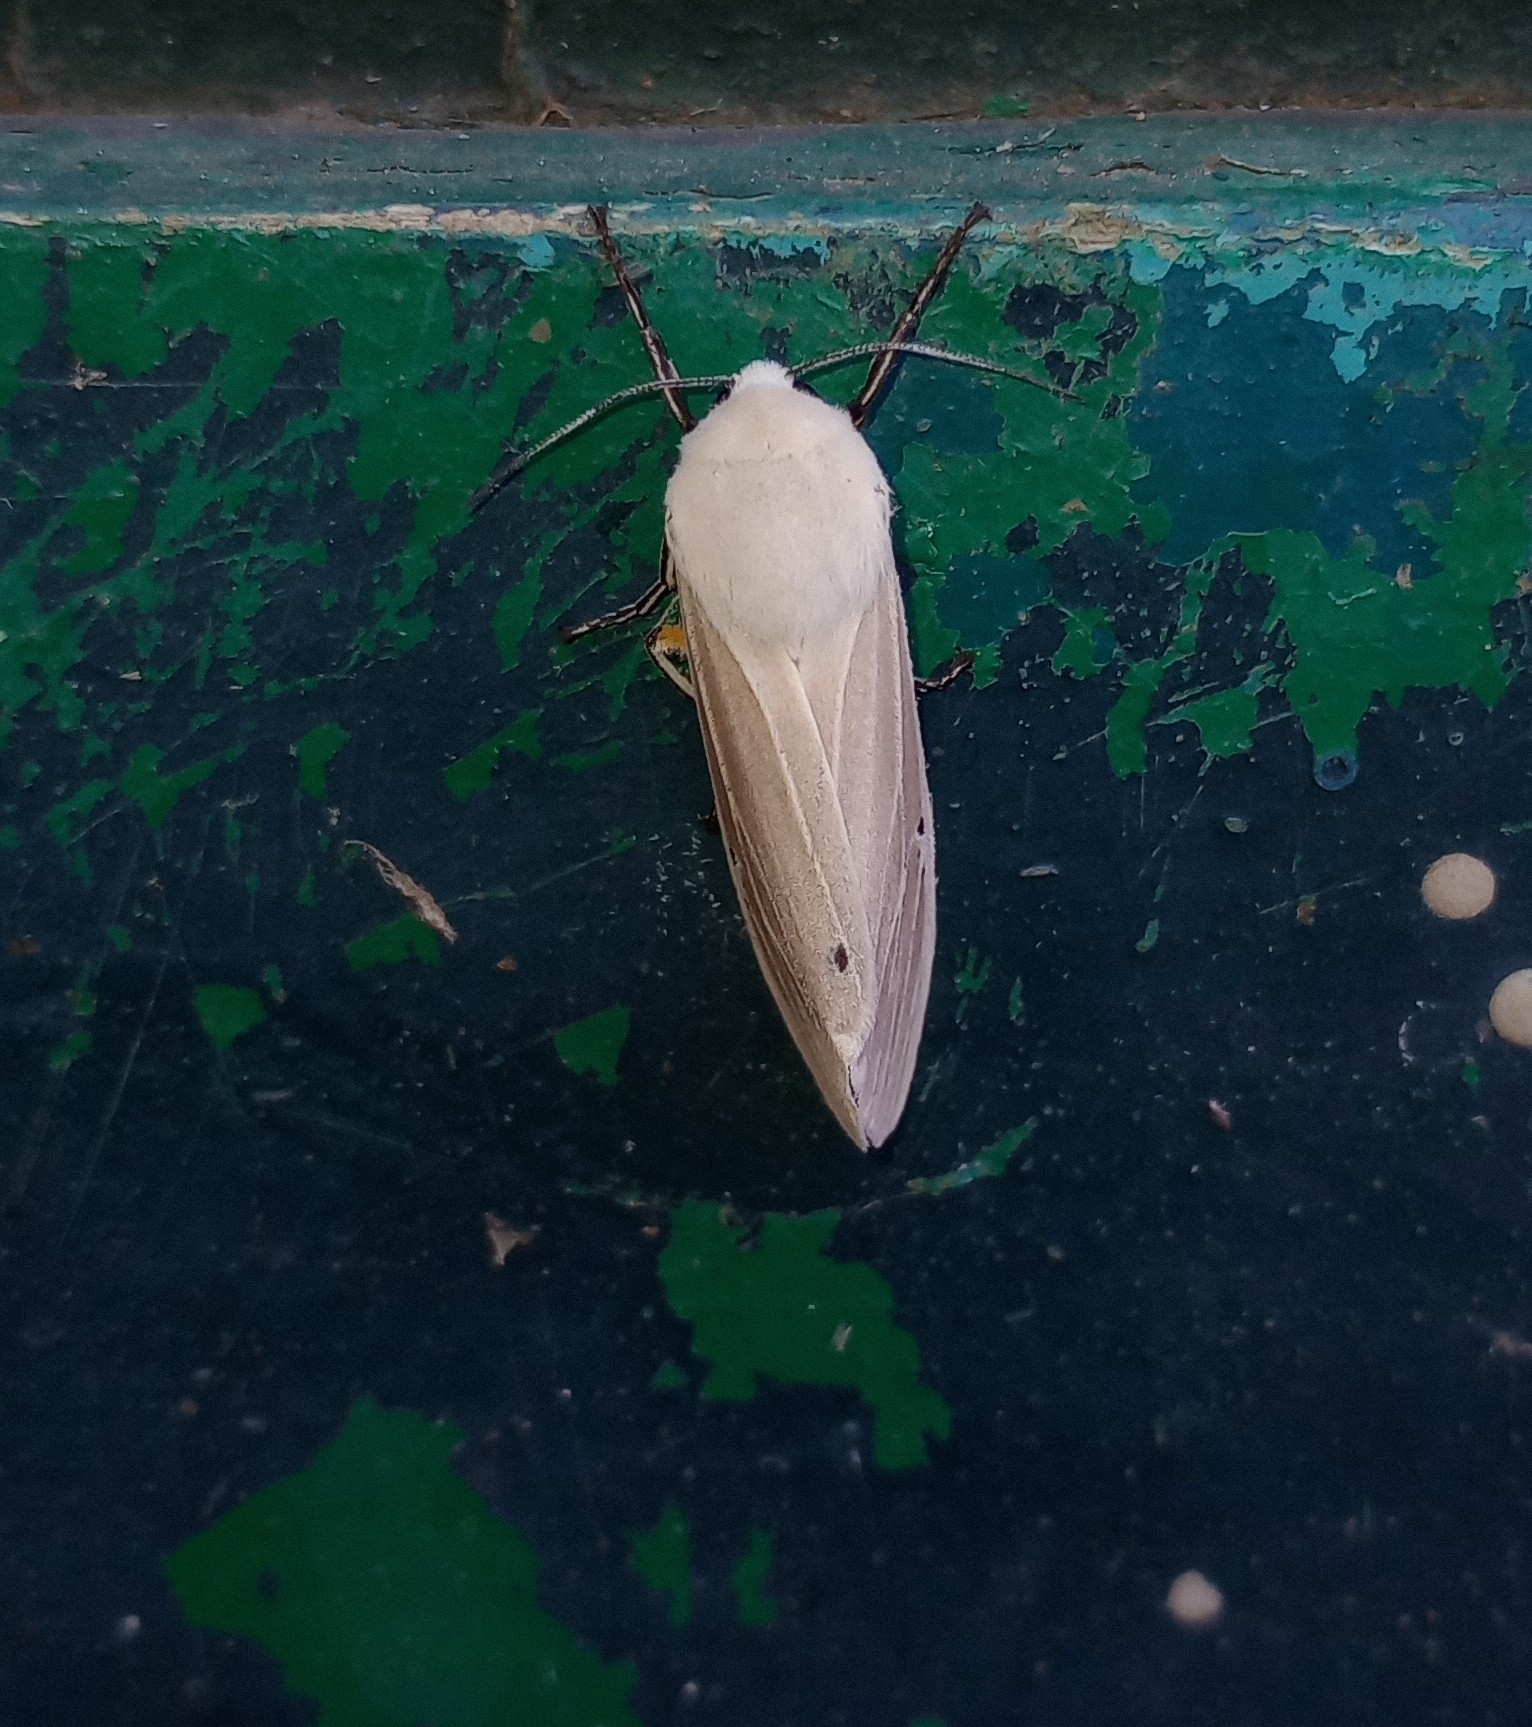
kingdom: Animalia
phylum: Arthropoda
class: Insecta
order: Lepidoptera
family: Erebidae
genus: Creatonotos
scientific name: Creatonotos transiens
